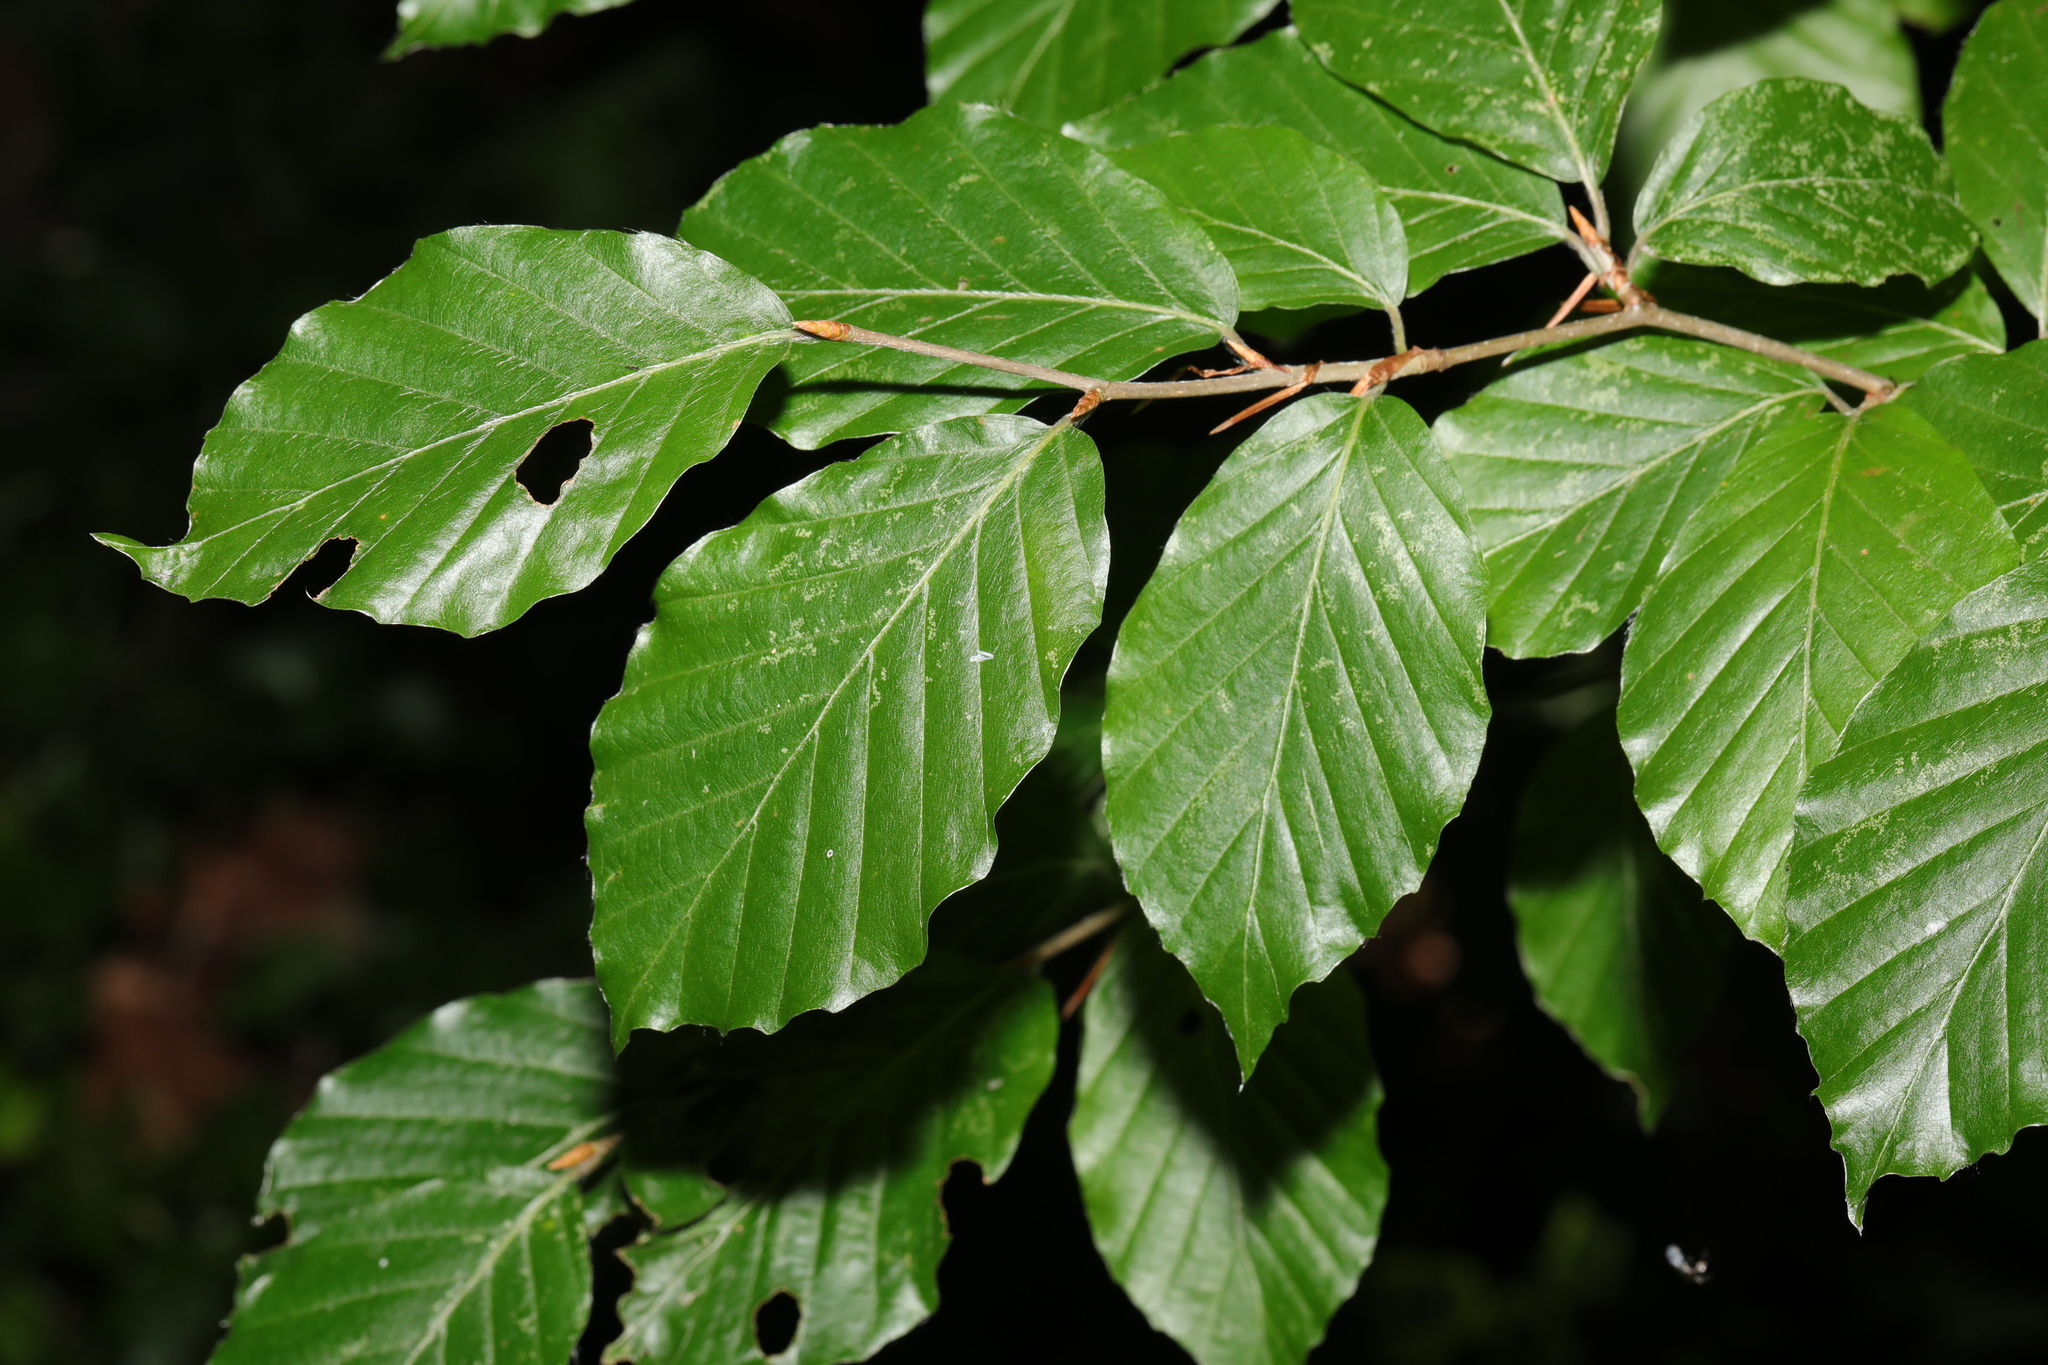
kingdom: Plantae
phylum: Tracheophyta
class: Magnoliopsida
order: Fagales
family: Fagaceae
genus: Fagus
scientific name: Fagus sylvatica
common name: Beech
